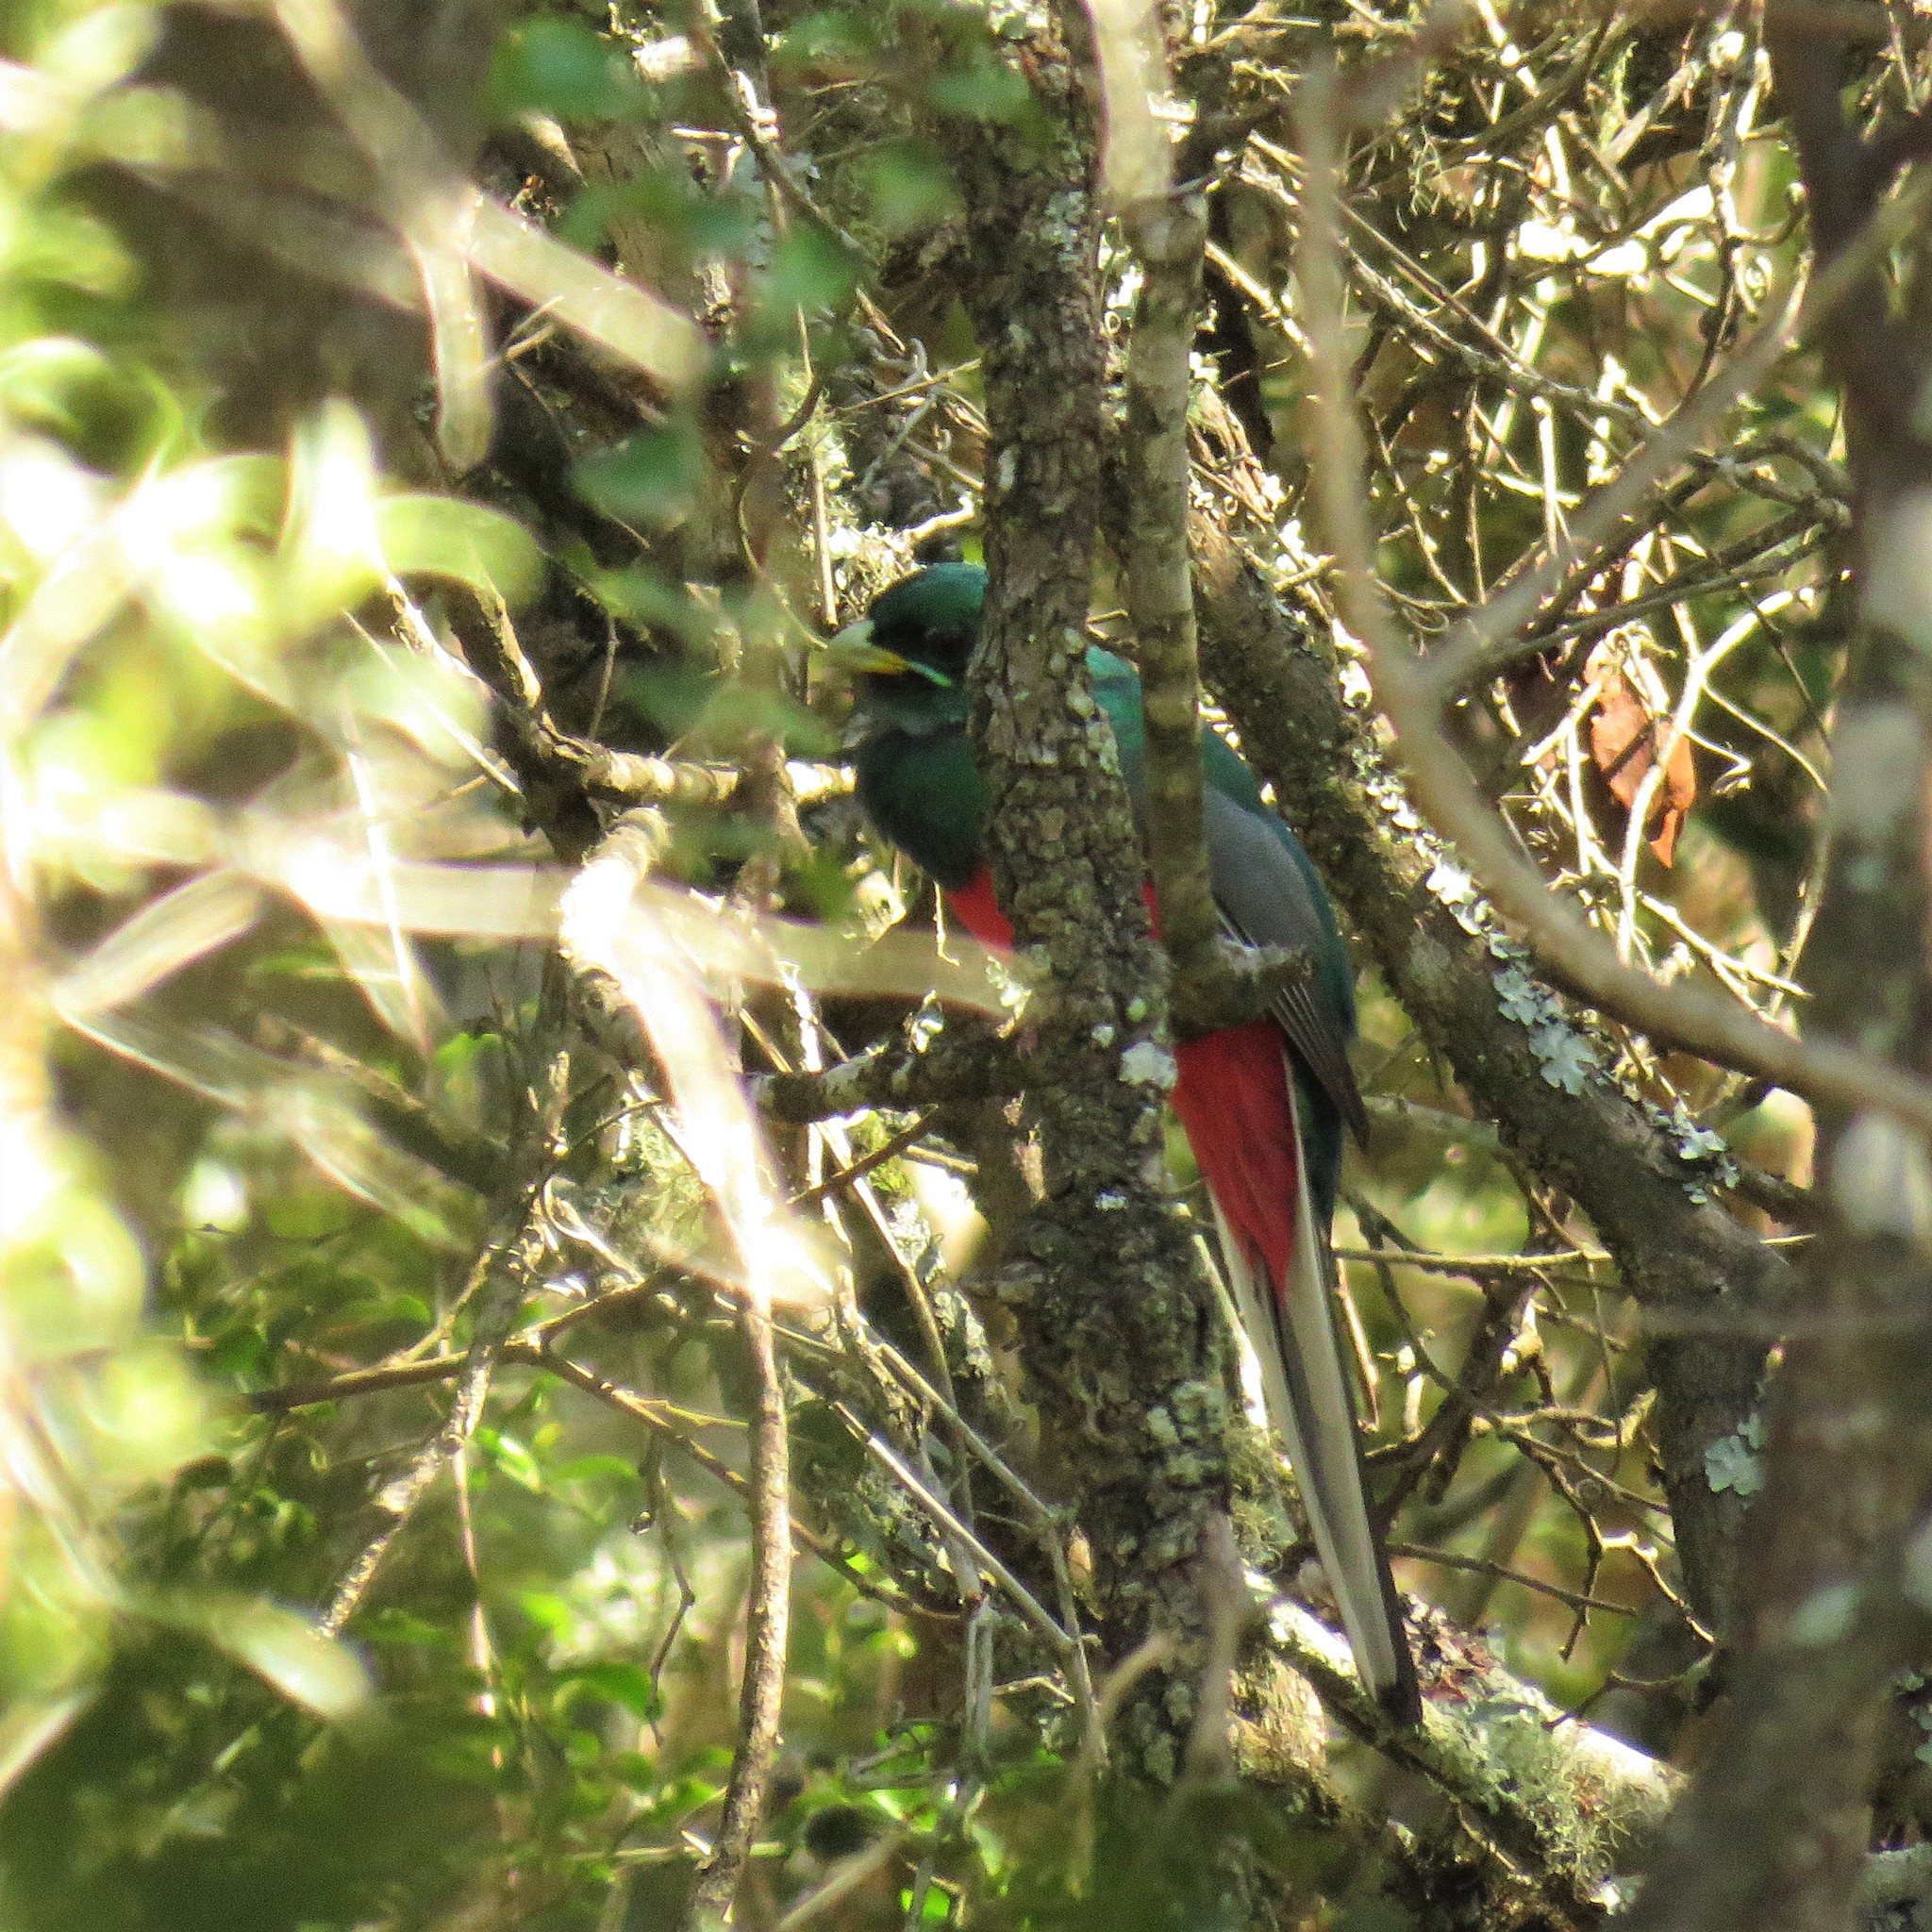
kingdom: Animalia
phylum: Chordata
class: Aves
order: Trogoniformes
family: Trogonidae
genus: Apaloderma
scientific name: Apaloderma narina
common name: Narina trogon
